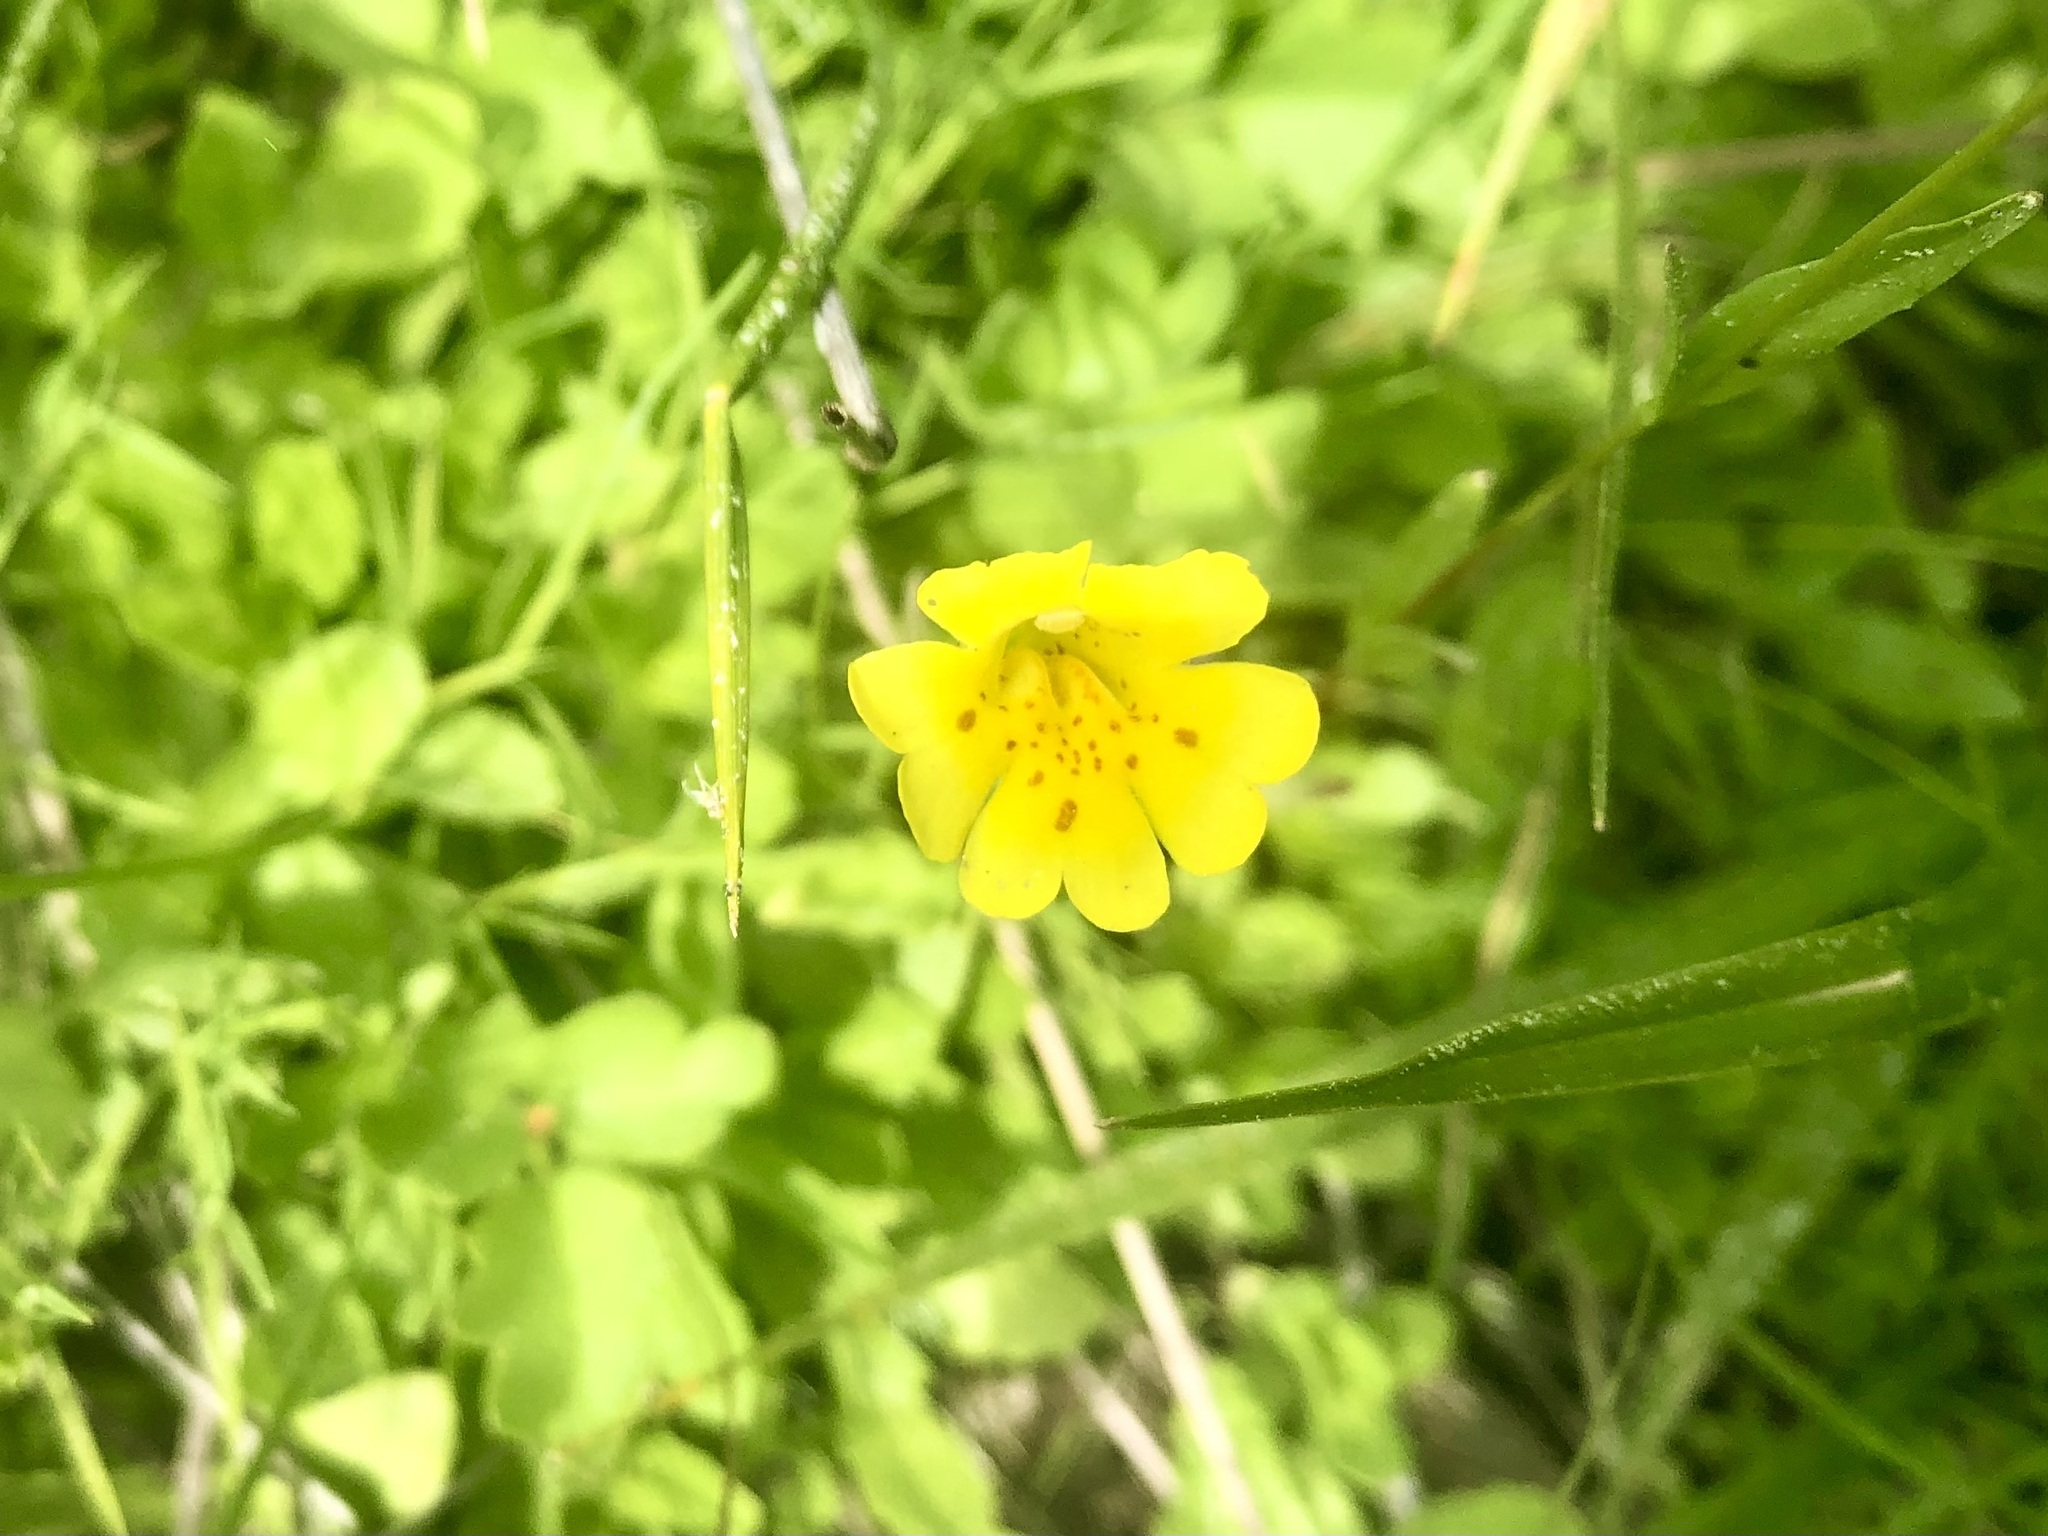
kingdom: Plantae
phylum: Tracheophyta
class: Magnoliopsida
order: Lamiales
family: Phrymaceae
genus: Erythranthe
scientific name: Erythranthe primuloides
